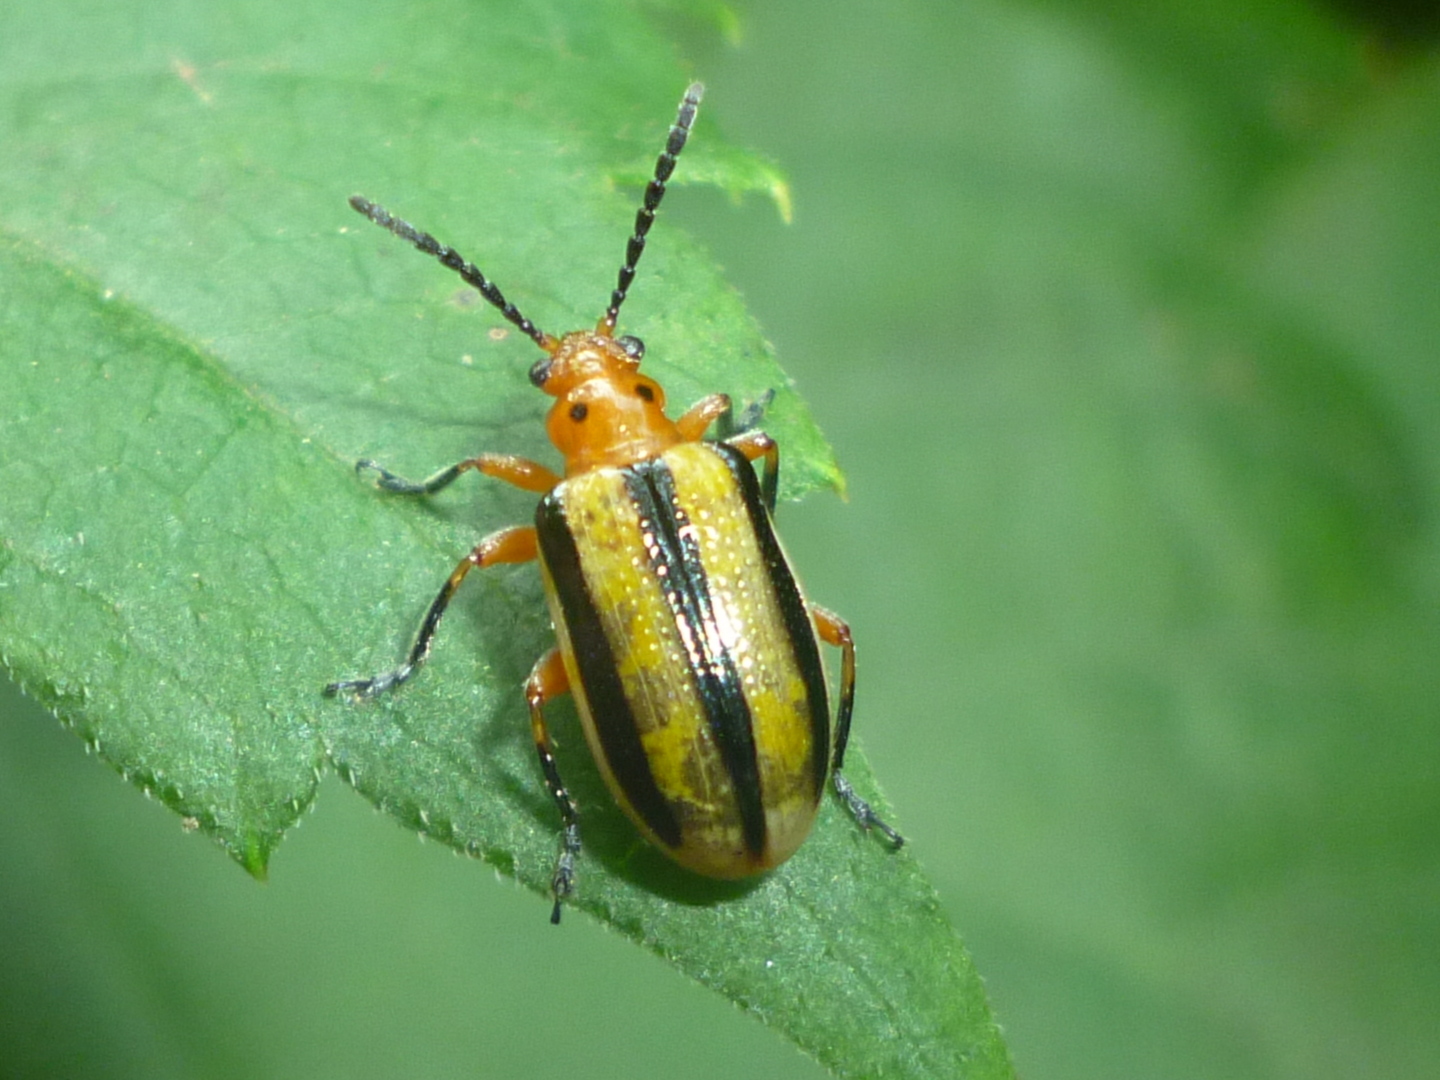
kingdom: Animalia
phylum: Arthropoda
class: Insecta
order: Coleoptera
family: Chrysomelidae
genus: Lema
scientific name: Lema daturaphila
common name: Leaf beetle
